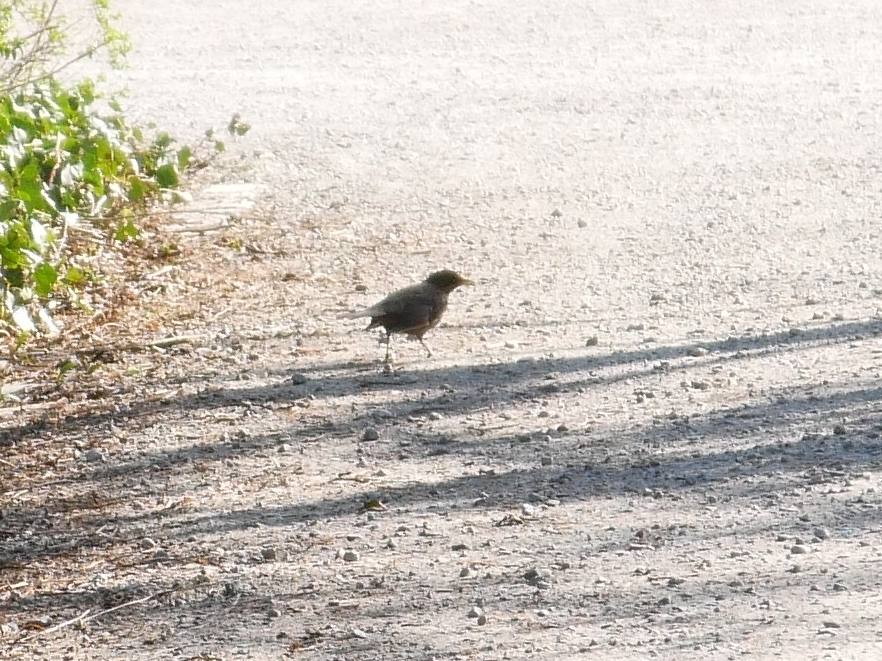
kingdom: Animalia
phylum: Chordata
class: Aves
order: Passeriformes
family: Turdidae
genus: Turdus
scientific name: Turdus merula
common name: Common blackbird
